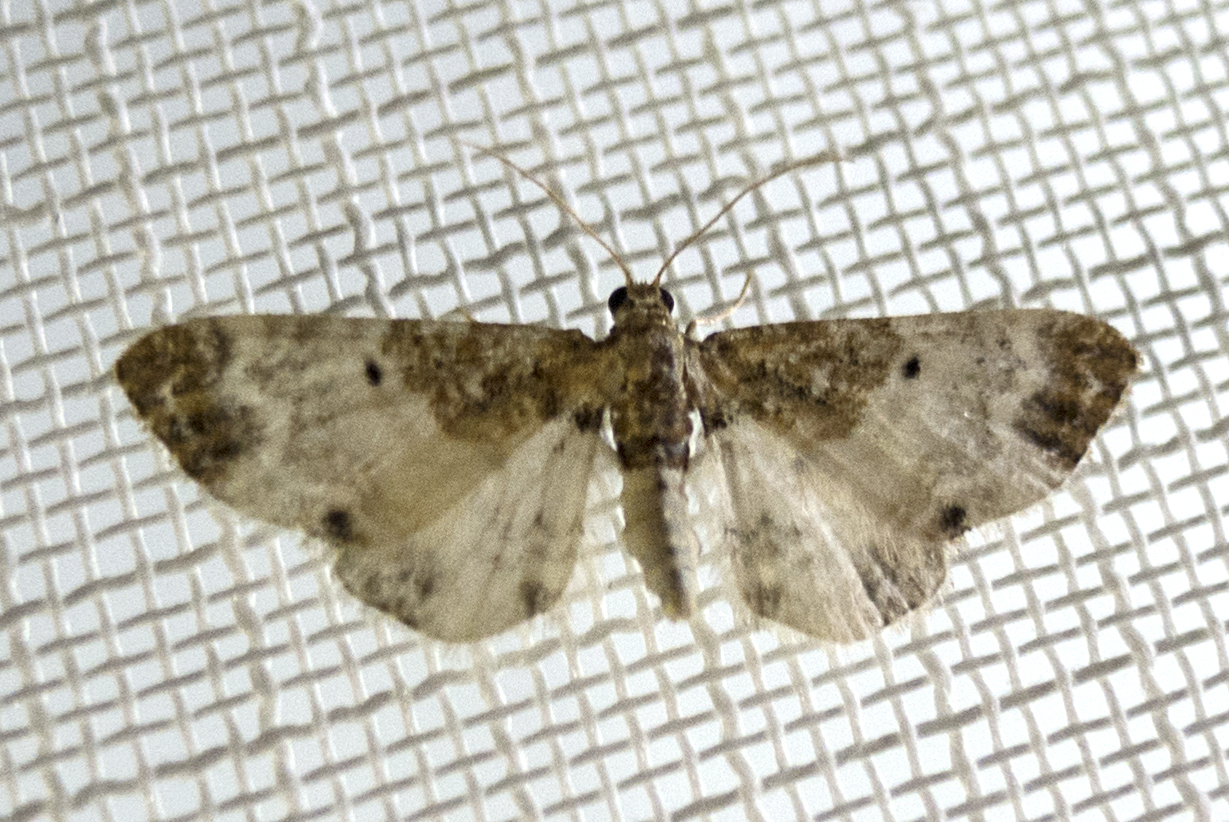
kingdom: Animalia
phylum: Arthropoda
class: Insecta
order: Lepidoptera
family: Geometridae
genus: Eupithecia
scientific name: Eupithecia breviculata
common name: Rusty-shouldered pug
